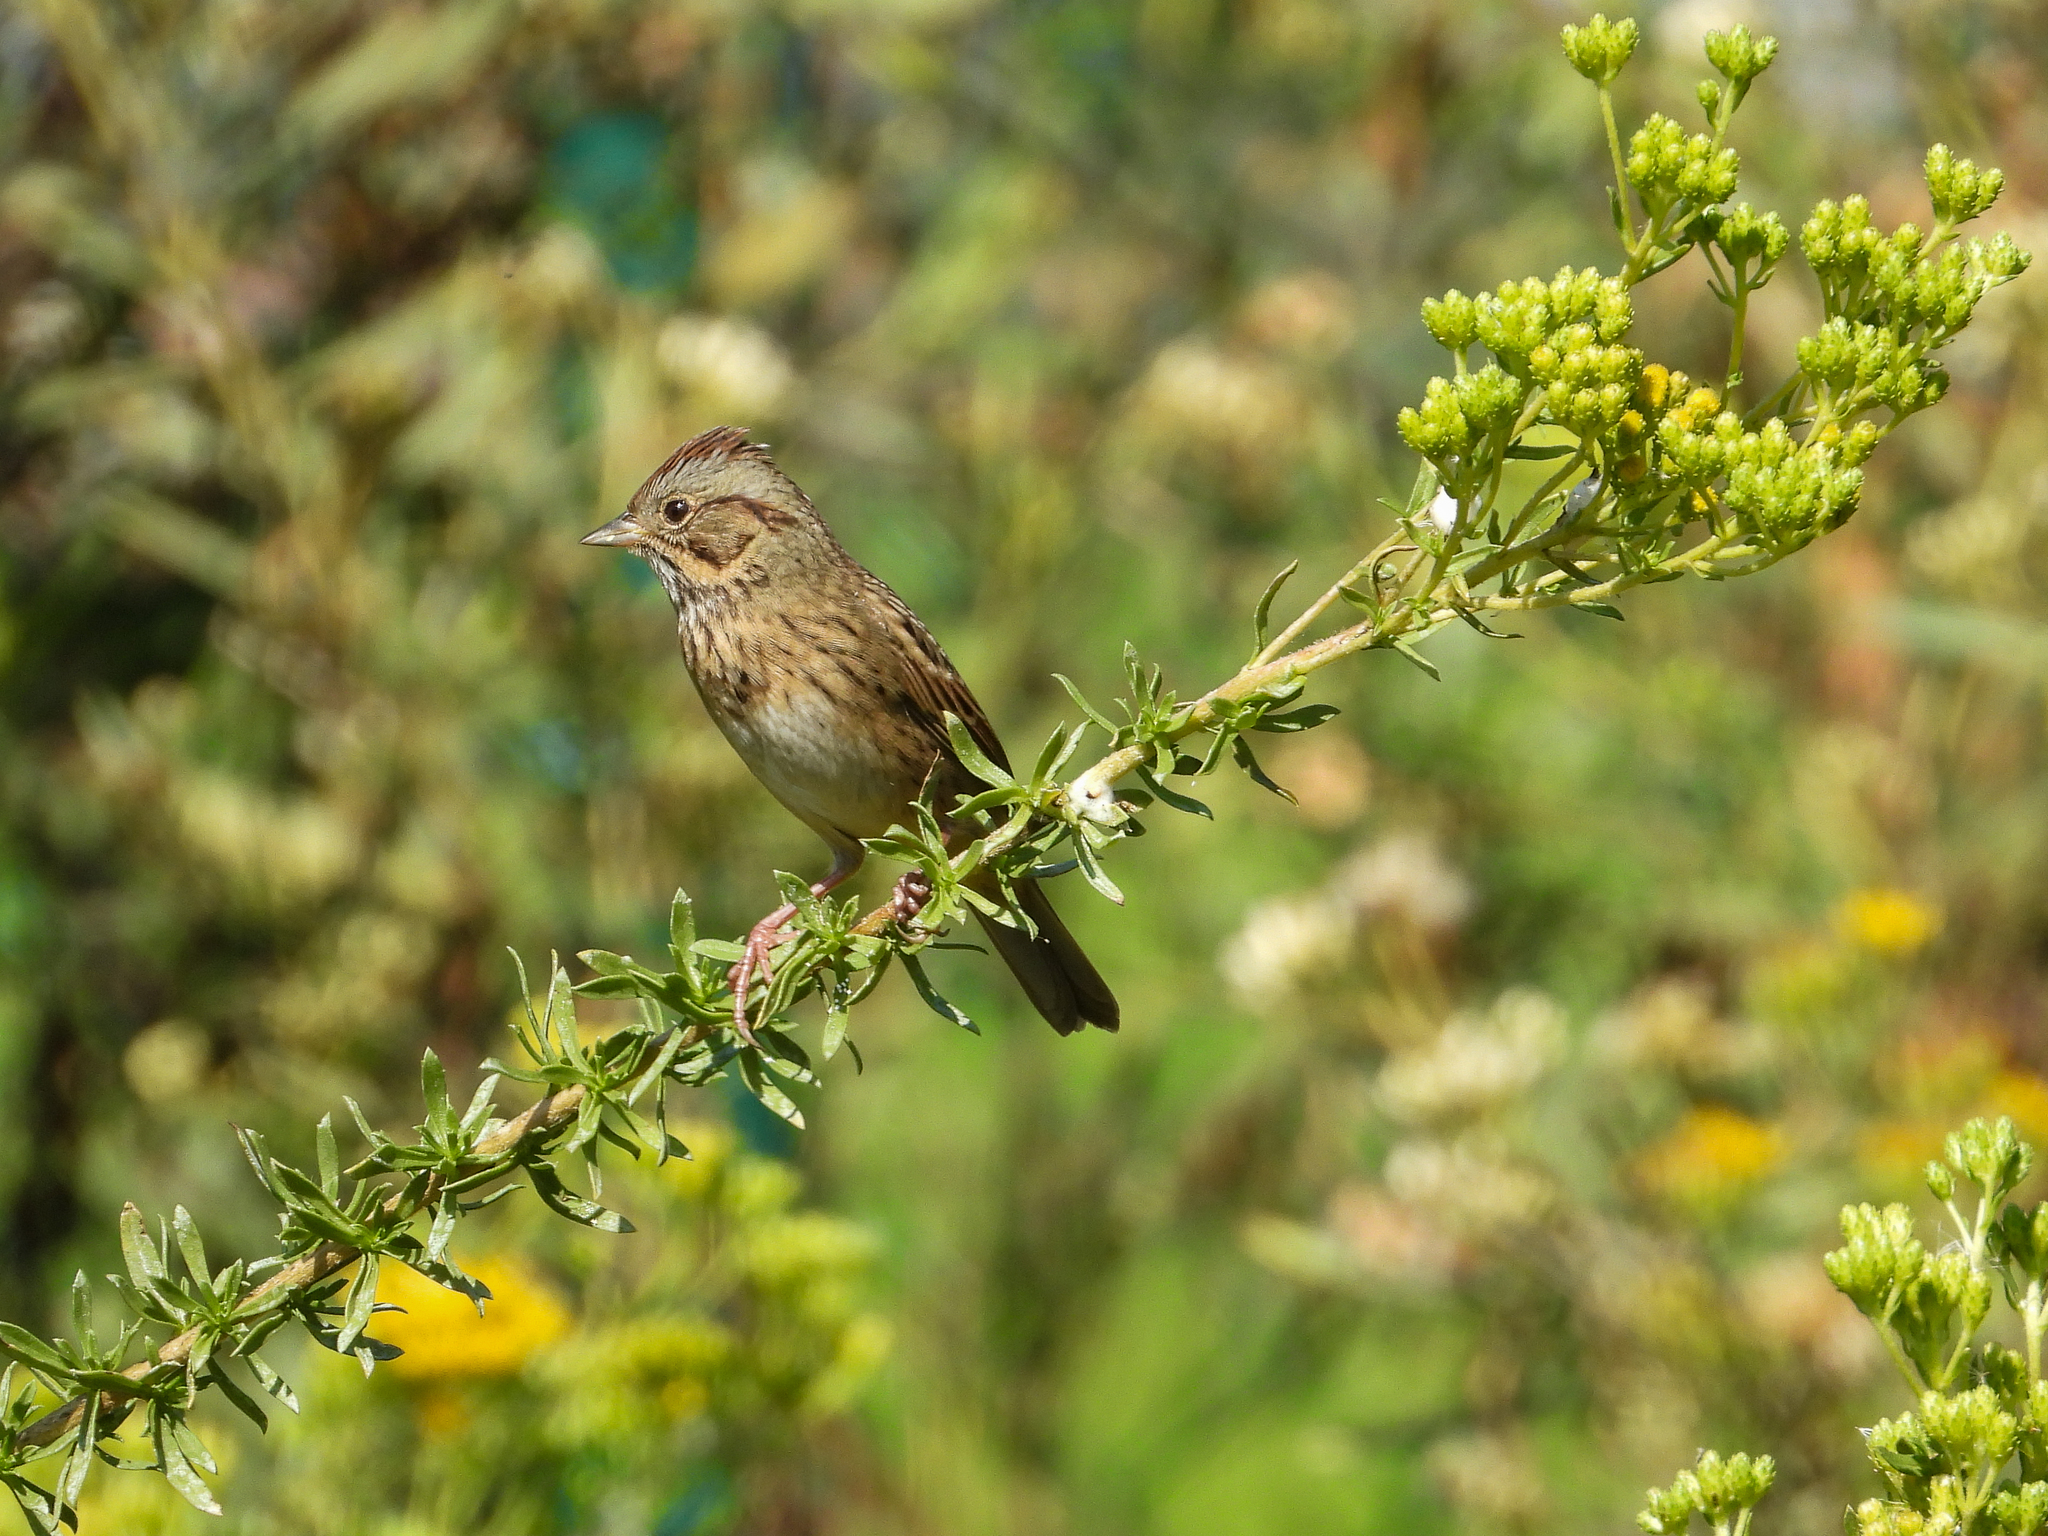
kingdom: Animalia
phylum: Chordata
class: Aves
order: Passeriformes
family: Passerellidae
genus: Melospiza
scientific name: Melospiza lincolnii
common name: Lincoln's sparrow
